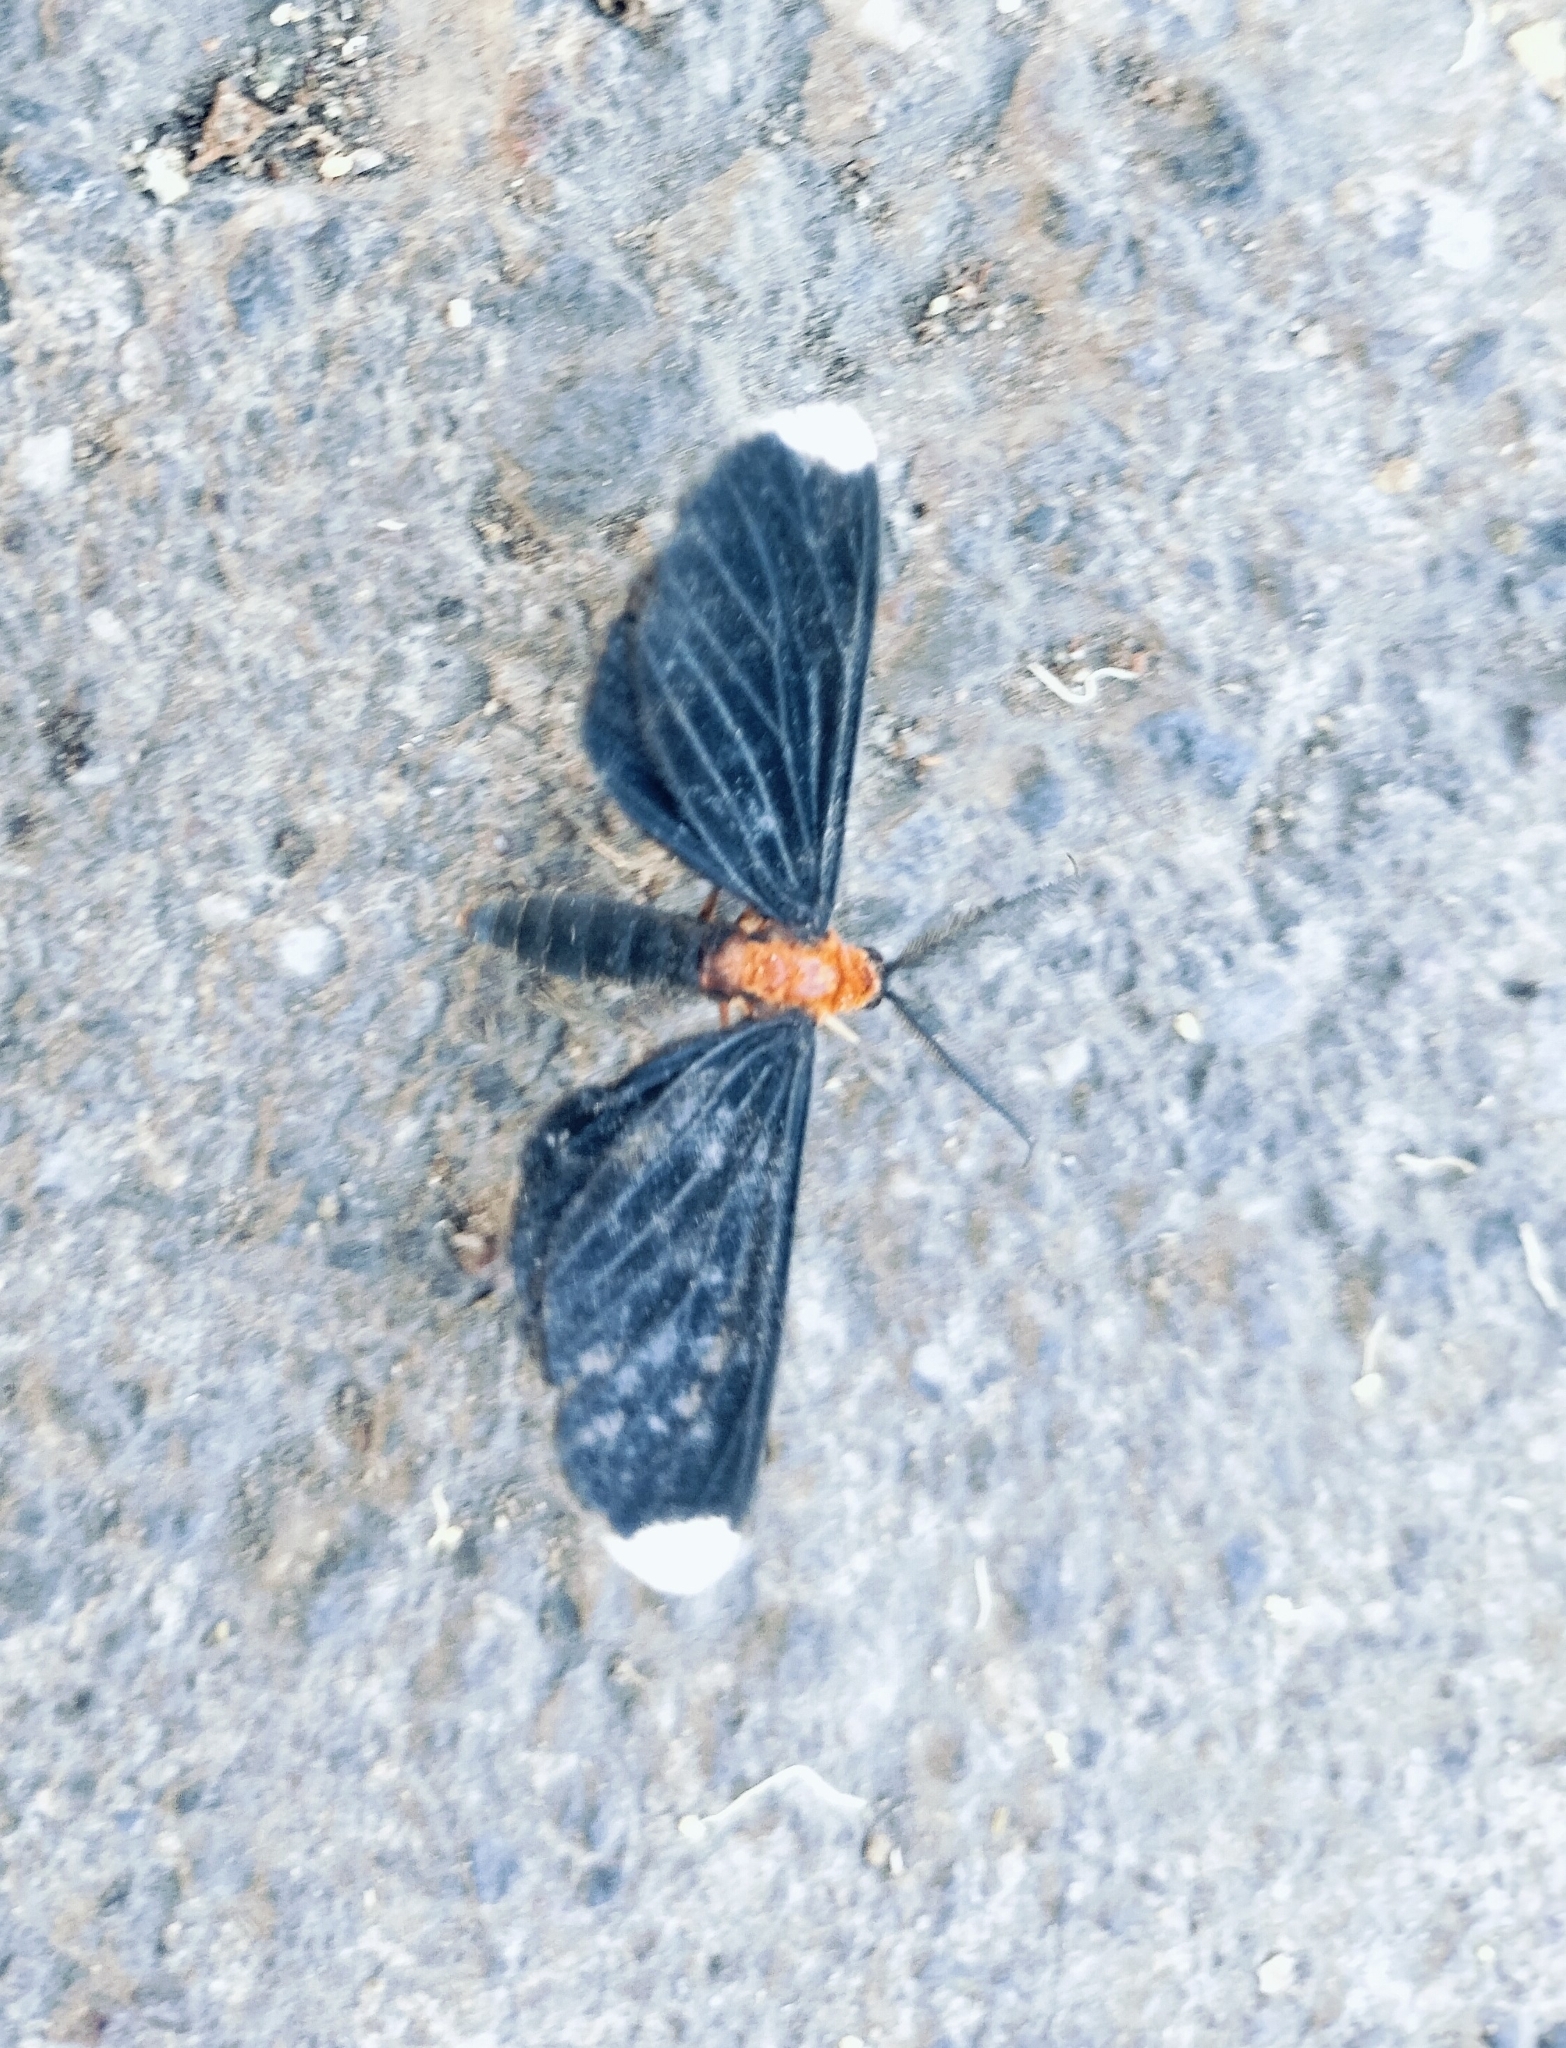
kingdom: Animalia
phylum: Arthropoda
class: Insecta
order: Lepidoptera
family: Geometridae
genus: Melanchroia
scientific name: Melanchroia chephise
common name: White-tipped black
